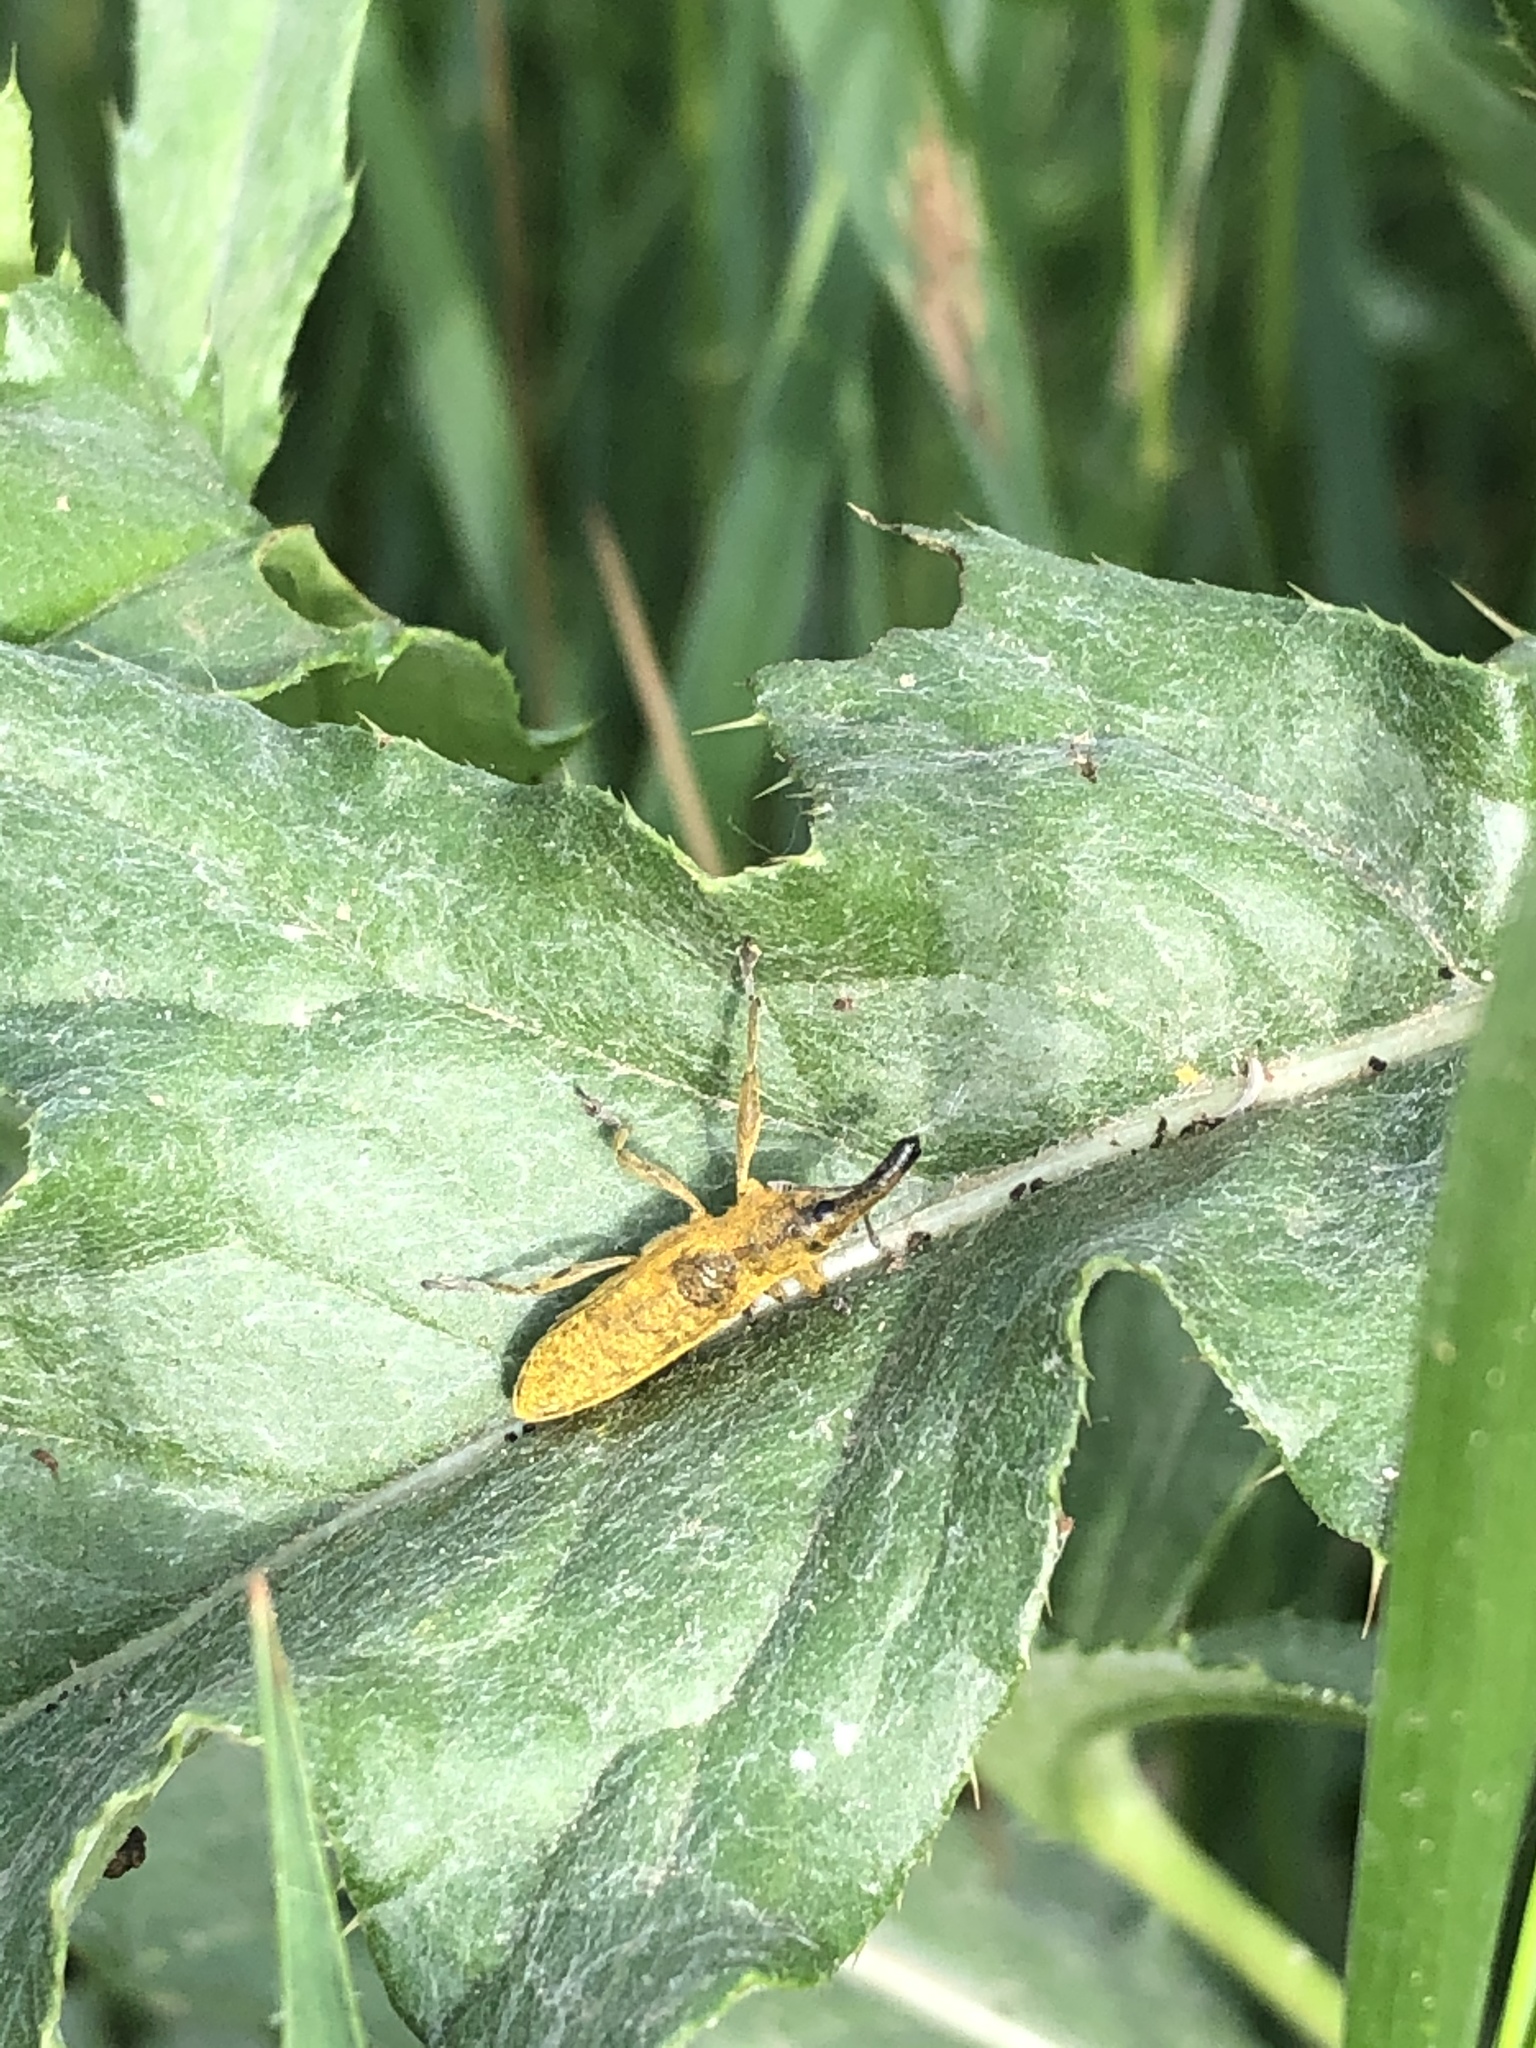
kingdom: Animalia
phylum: Arthropoda
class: Insecta
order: Coleoptera
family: Curculionidae
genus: Lixus
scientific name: Lixus pulverulentus
